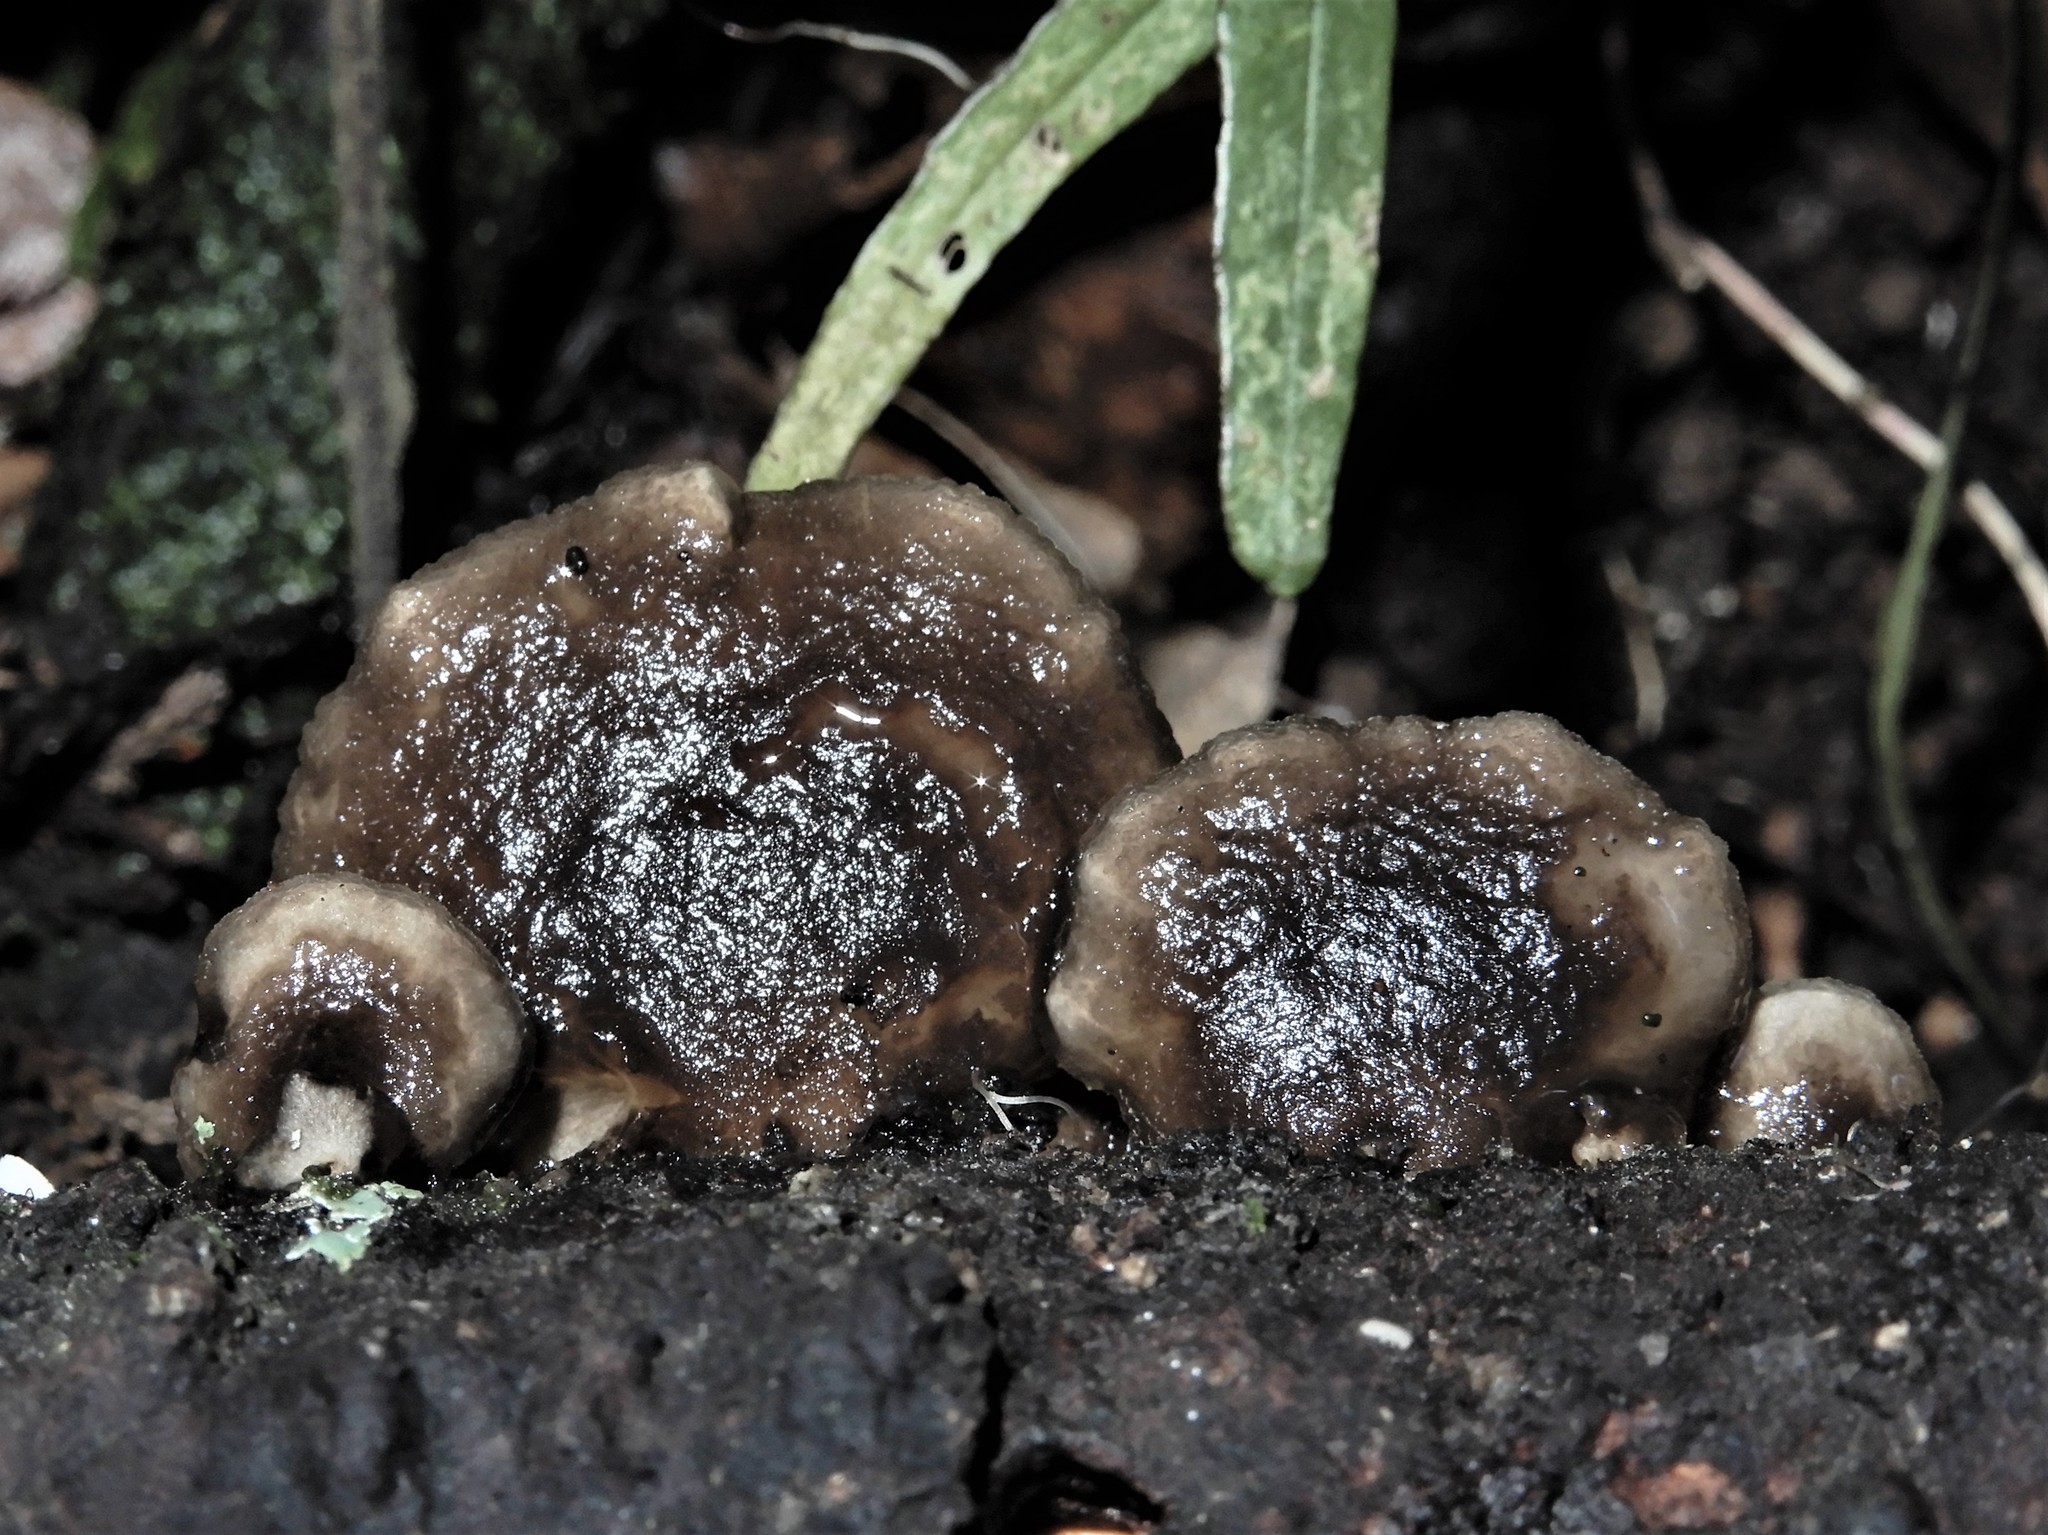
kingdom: Fungi
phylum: Basidiomycota
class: Agaricomycetes
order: Agaricales
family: Mycenaceae
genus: Panellus
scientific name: Panellus longinquus
